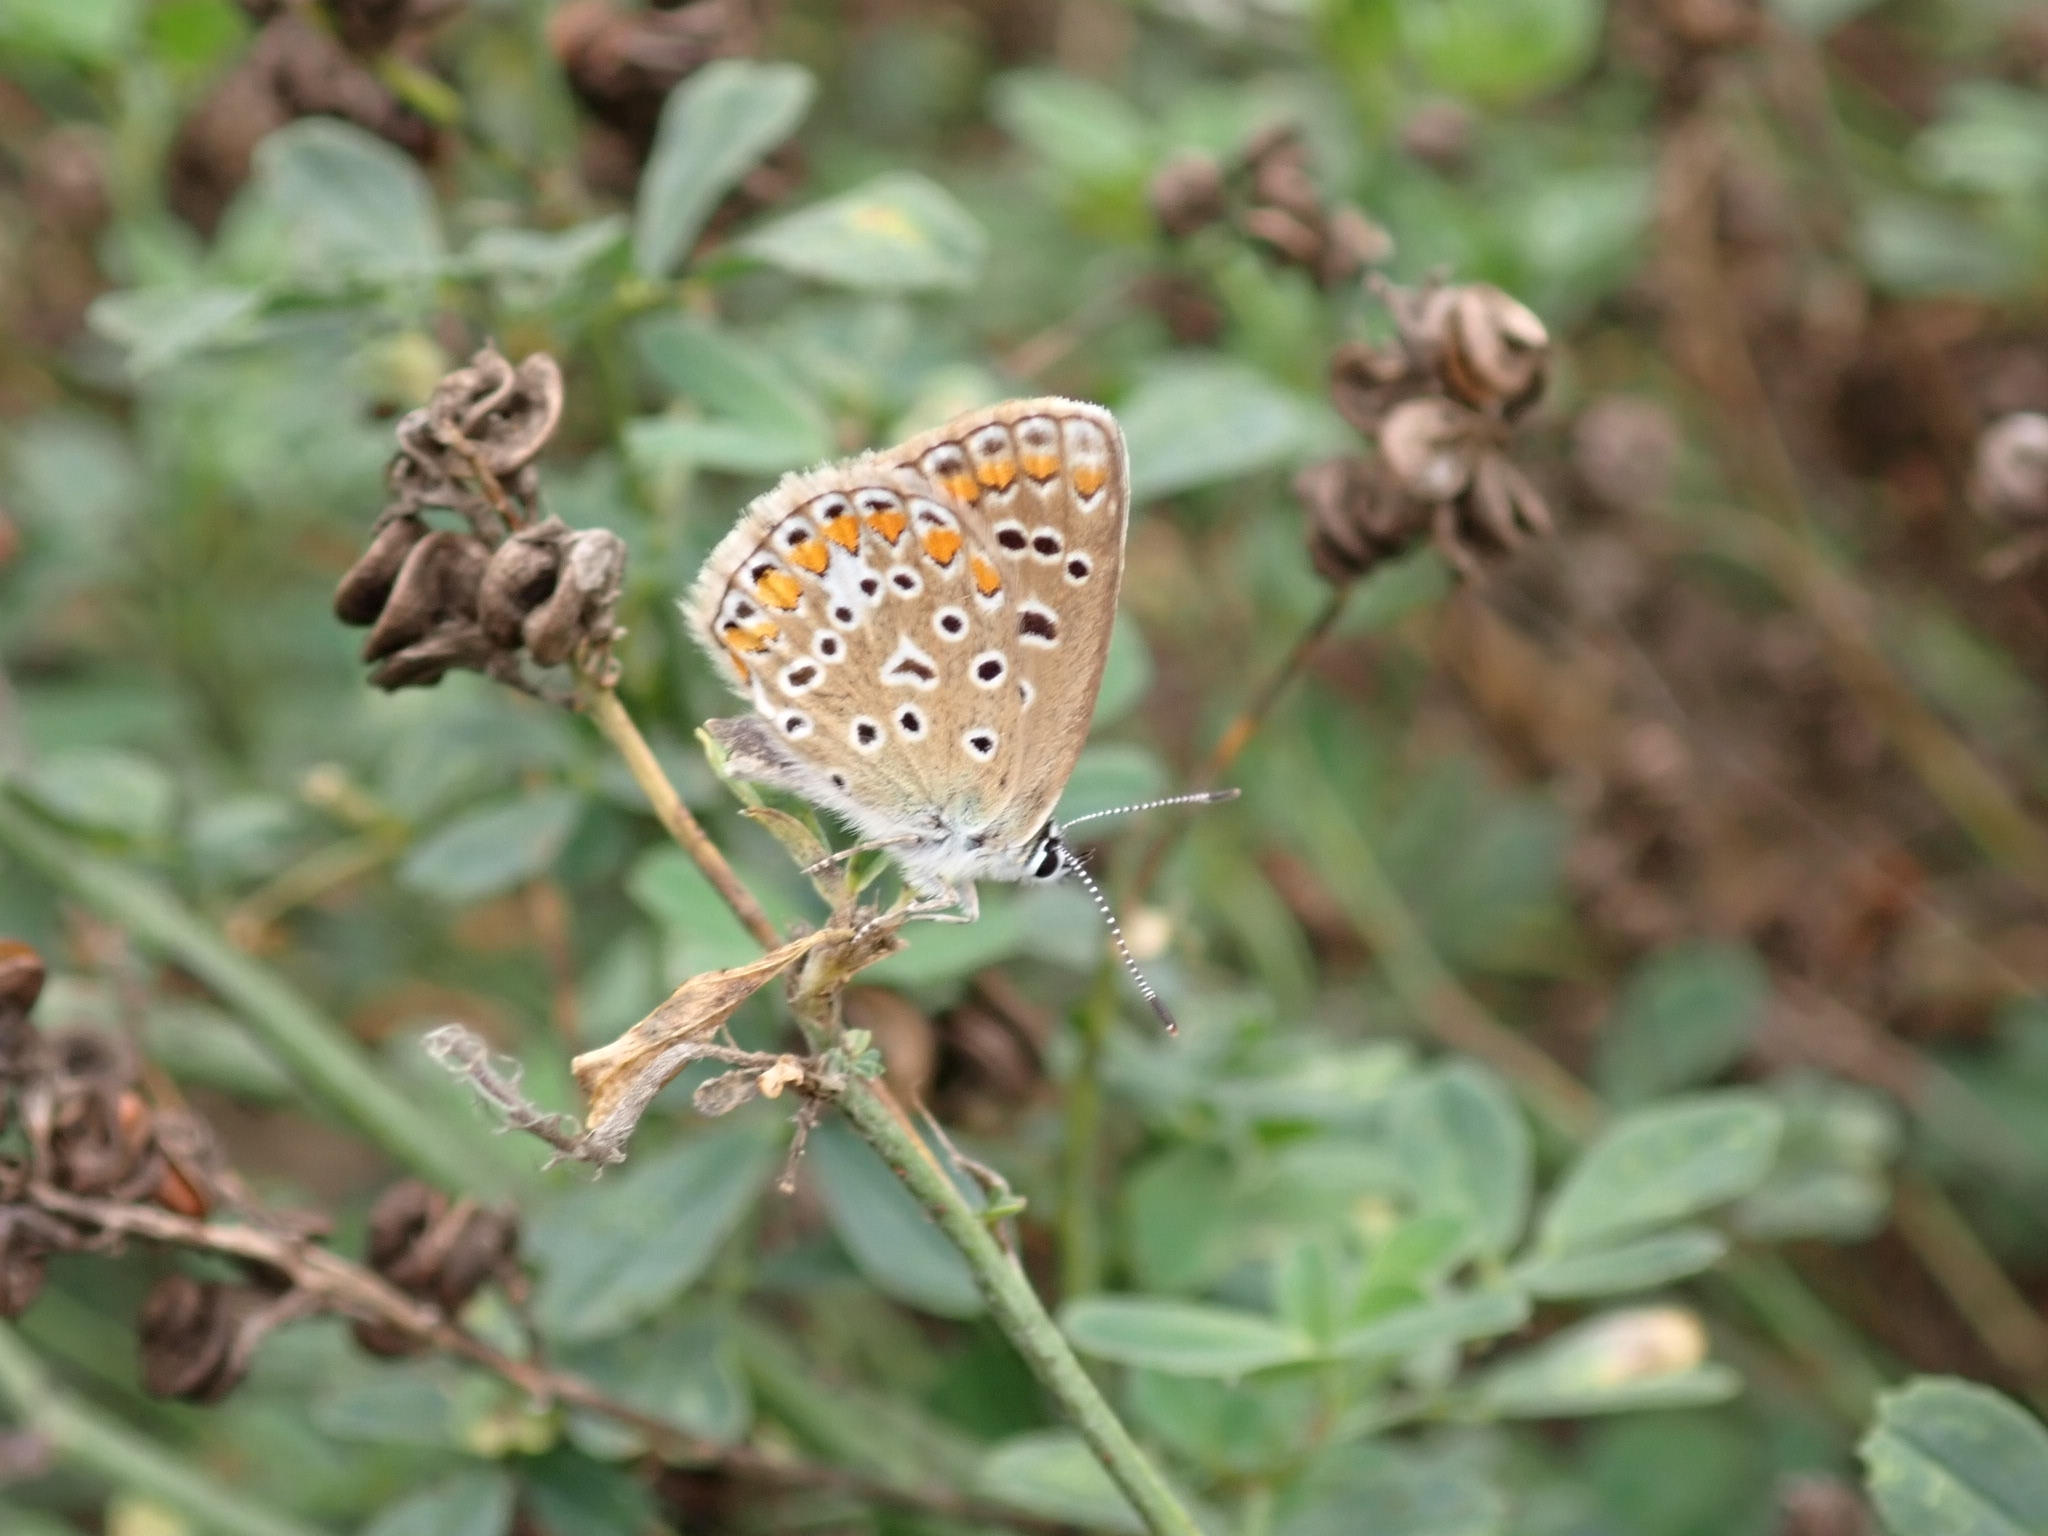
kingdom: Animalia
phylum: Arthropoda
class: Insecta
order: Lepidoptera
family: Lycaenidae
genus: Polyommatus
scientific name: Polyommatus icarus
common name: Common blue
